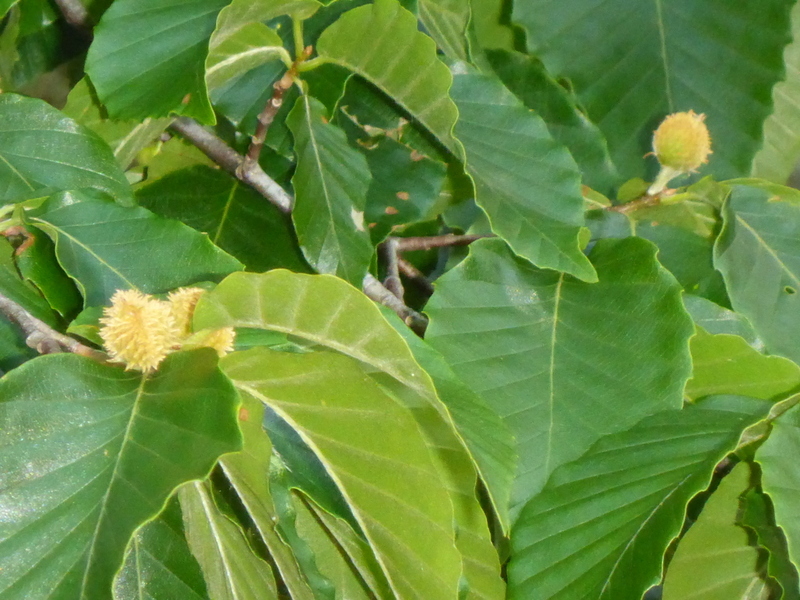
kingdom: Plantae
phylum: Tracheophyta
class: Magnoliopsida
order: Fagales
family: Fagaceae
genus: Fagus
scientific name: Fagus grandifolia
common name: American beech
